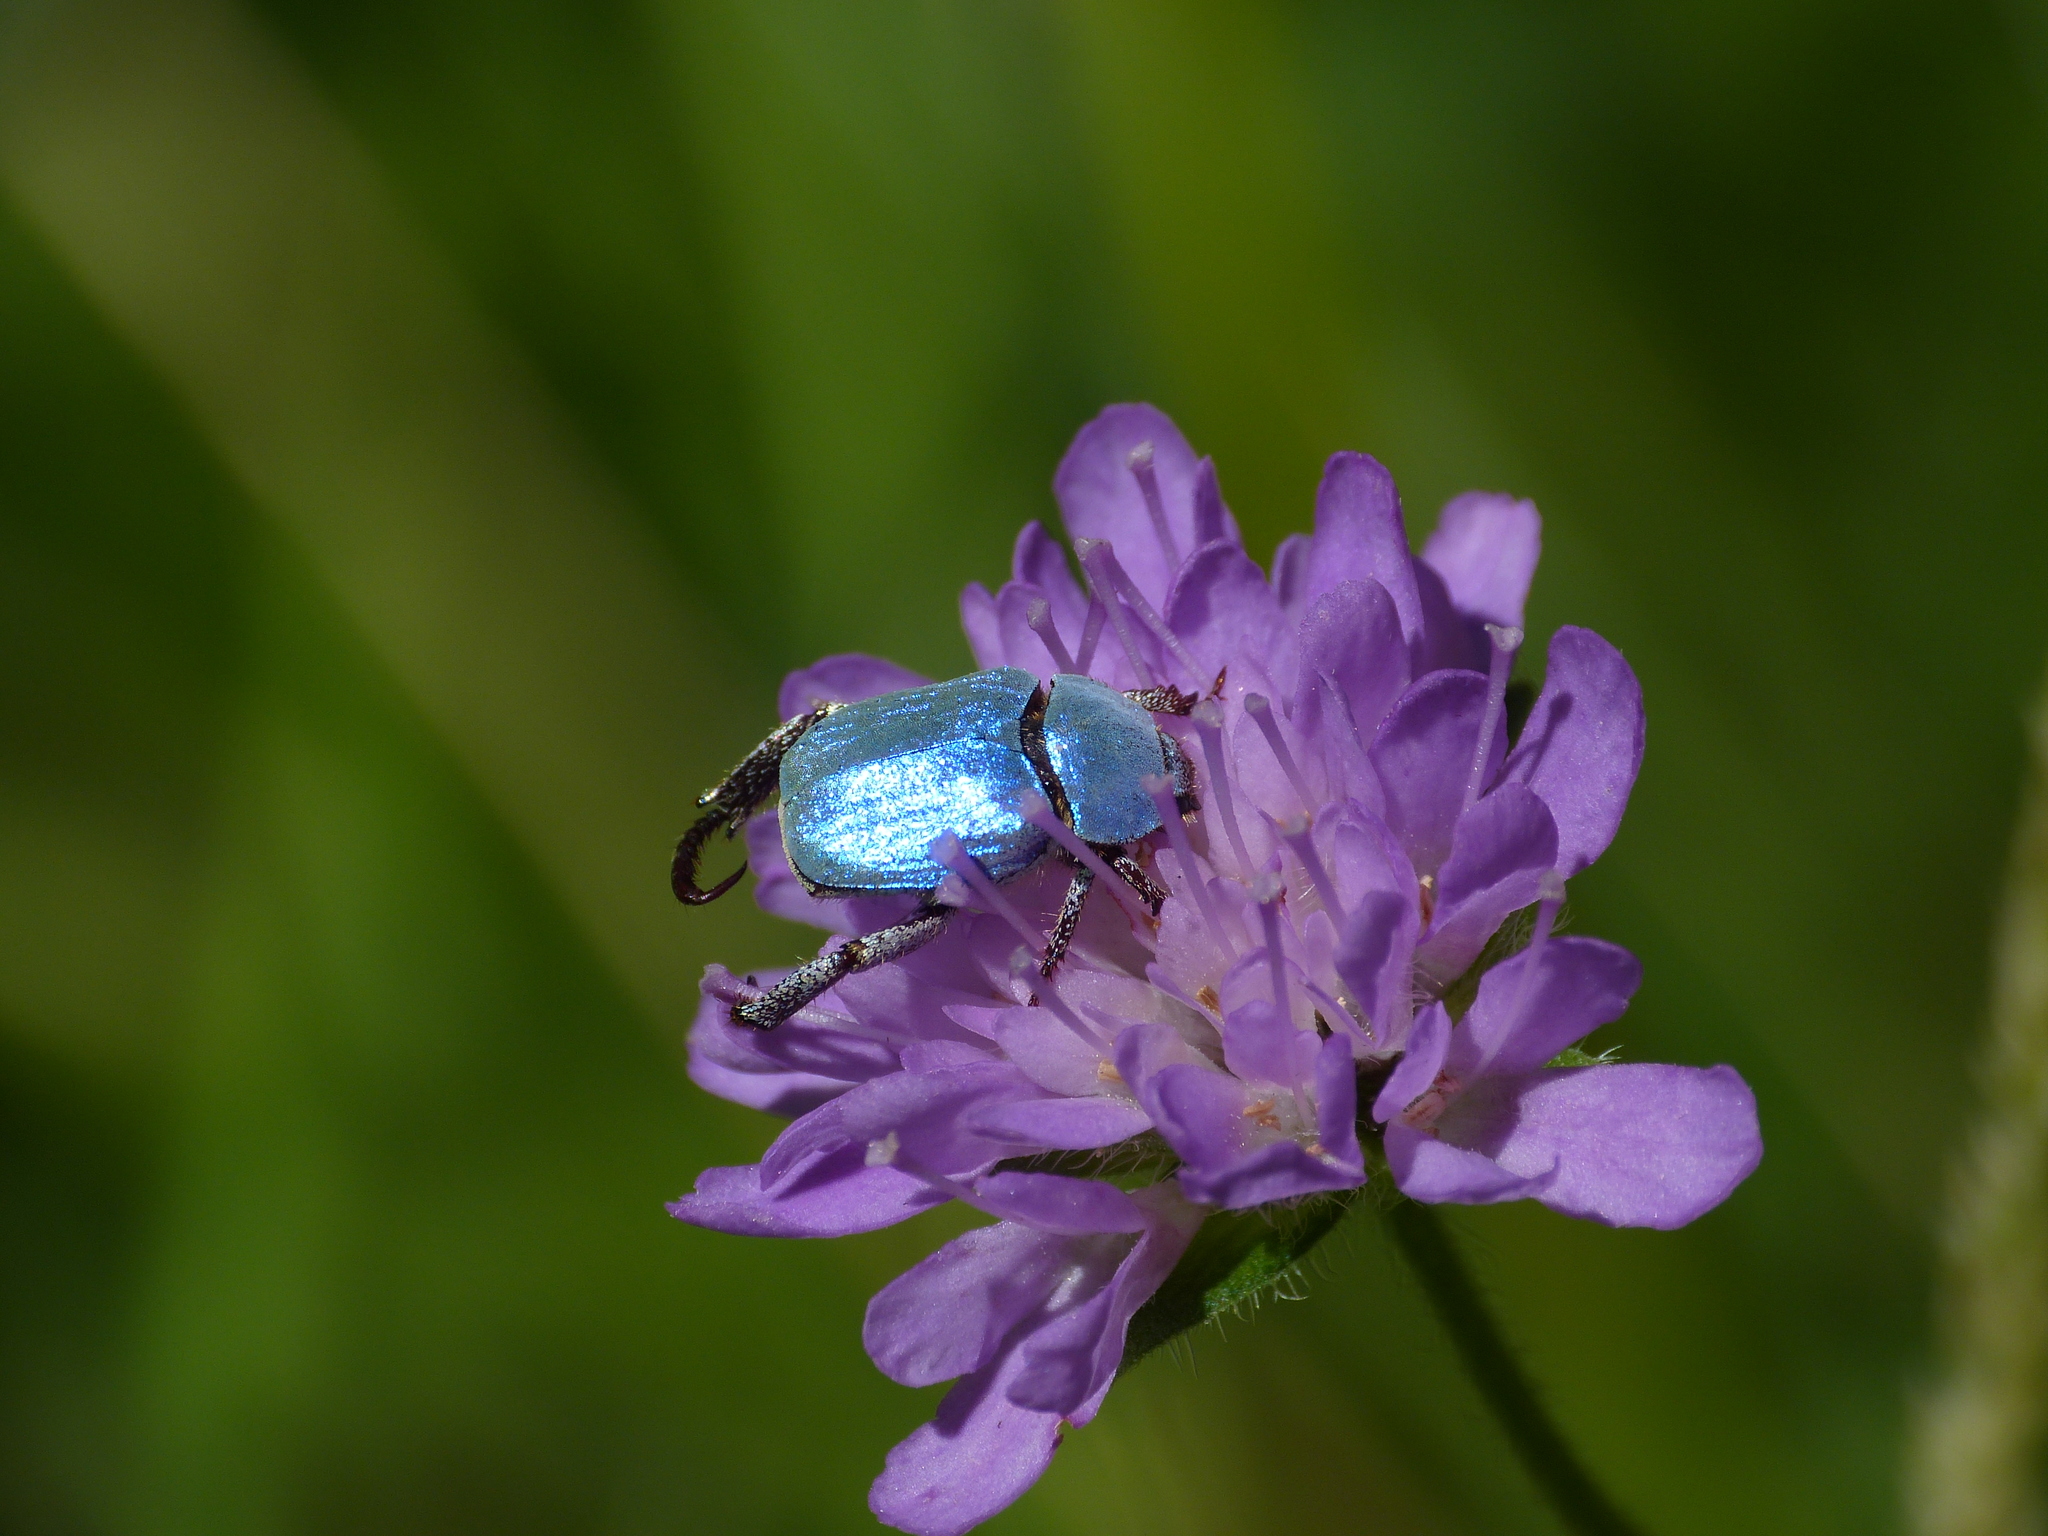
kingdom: Animalia
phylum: Arthropoda
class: Insecta
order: Coleoptera
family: Scarabaeidae
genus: Hoplia
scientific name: Hoplia coerulea
